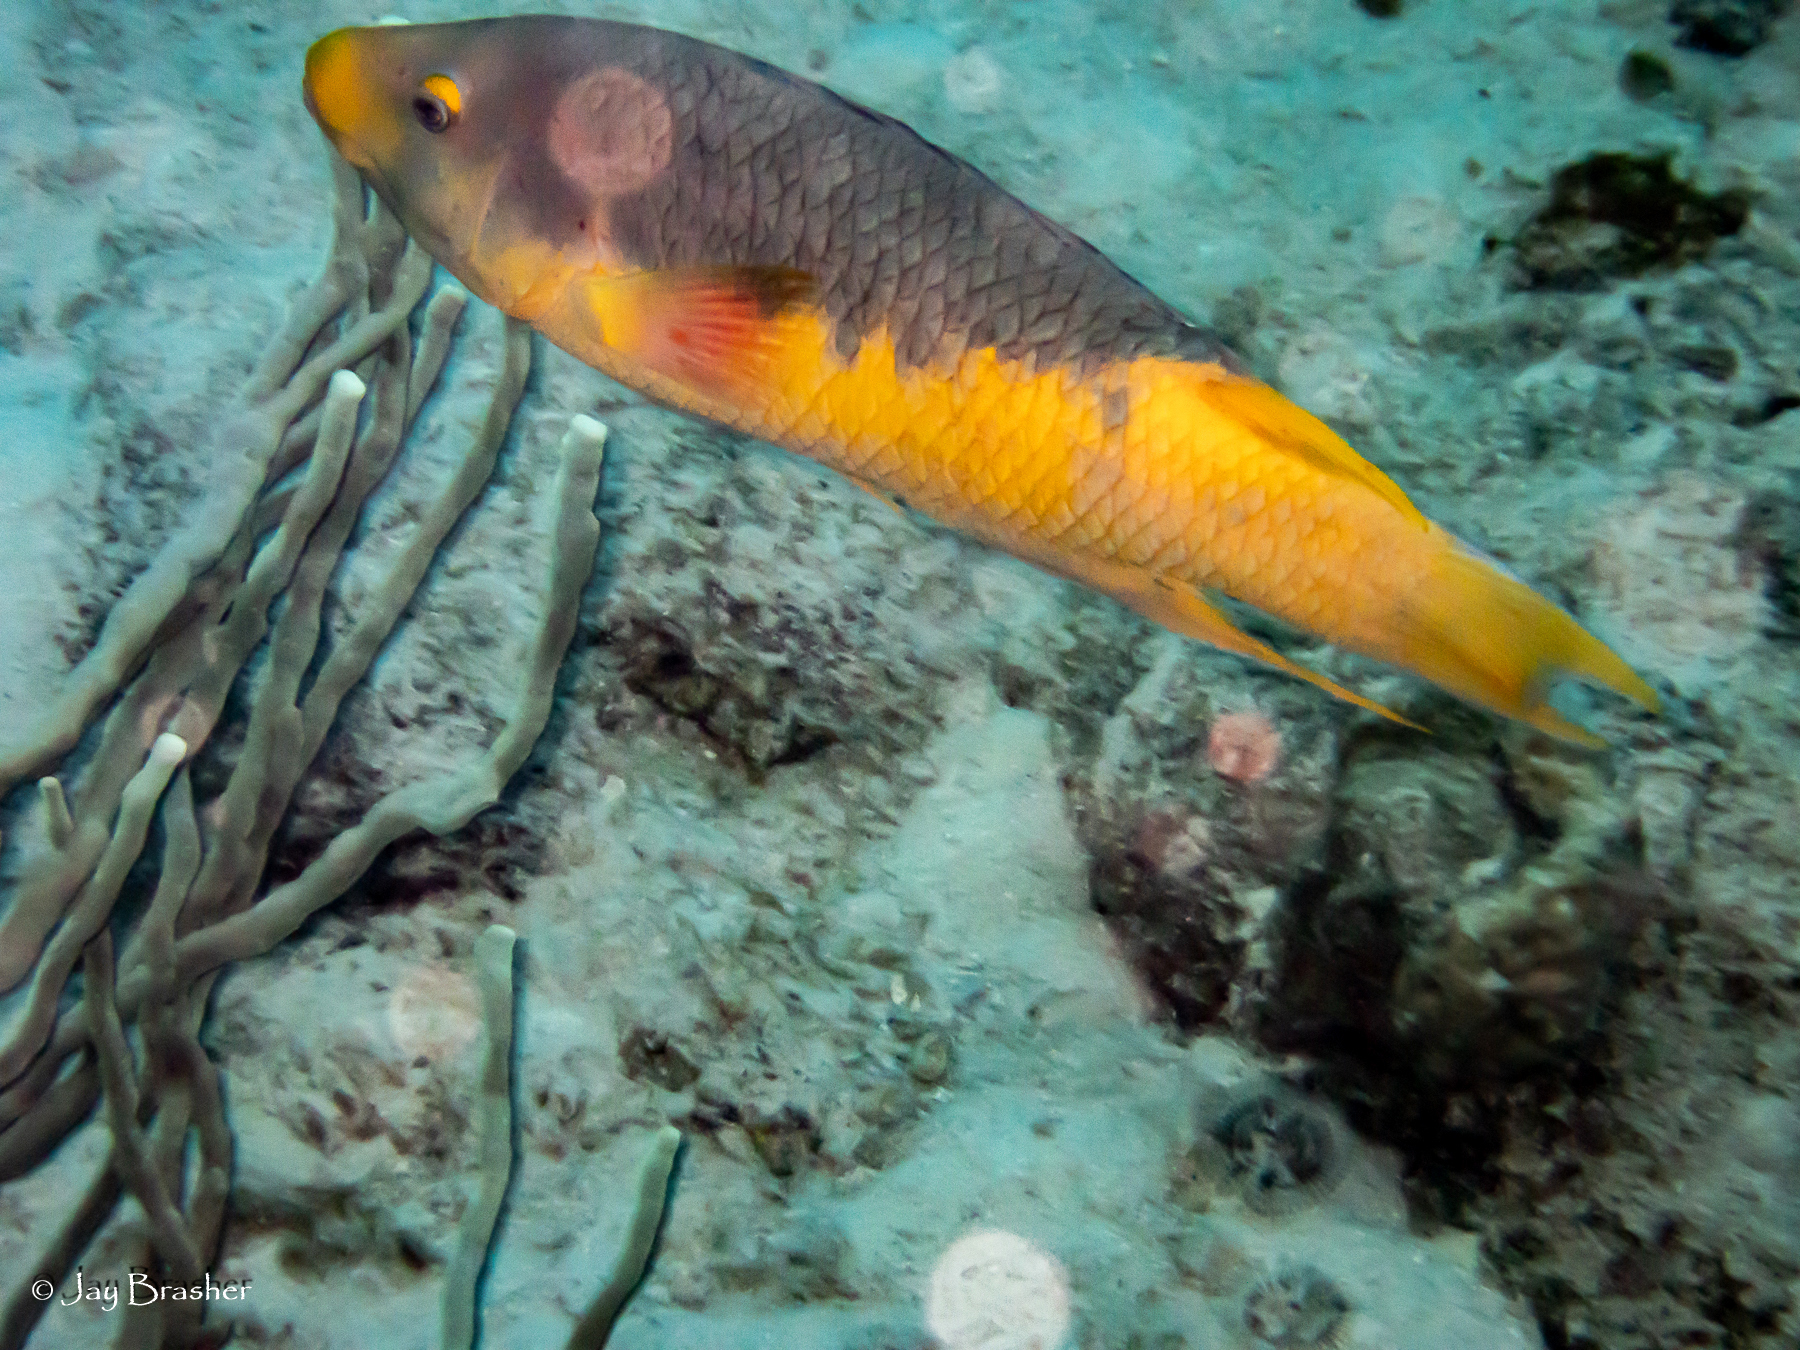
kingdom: Animalia
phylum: Chordata
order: Perciformes
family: Labridae
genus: Bodianus
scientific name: Bodianus rufus
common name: Spanish hogfish
